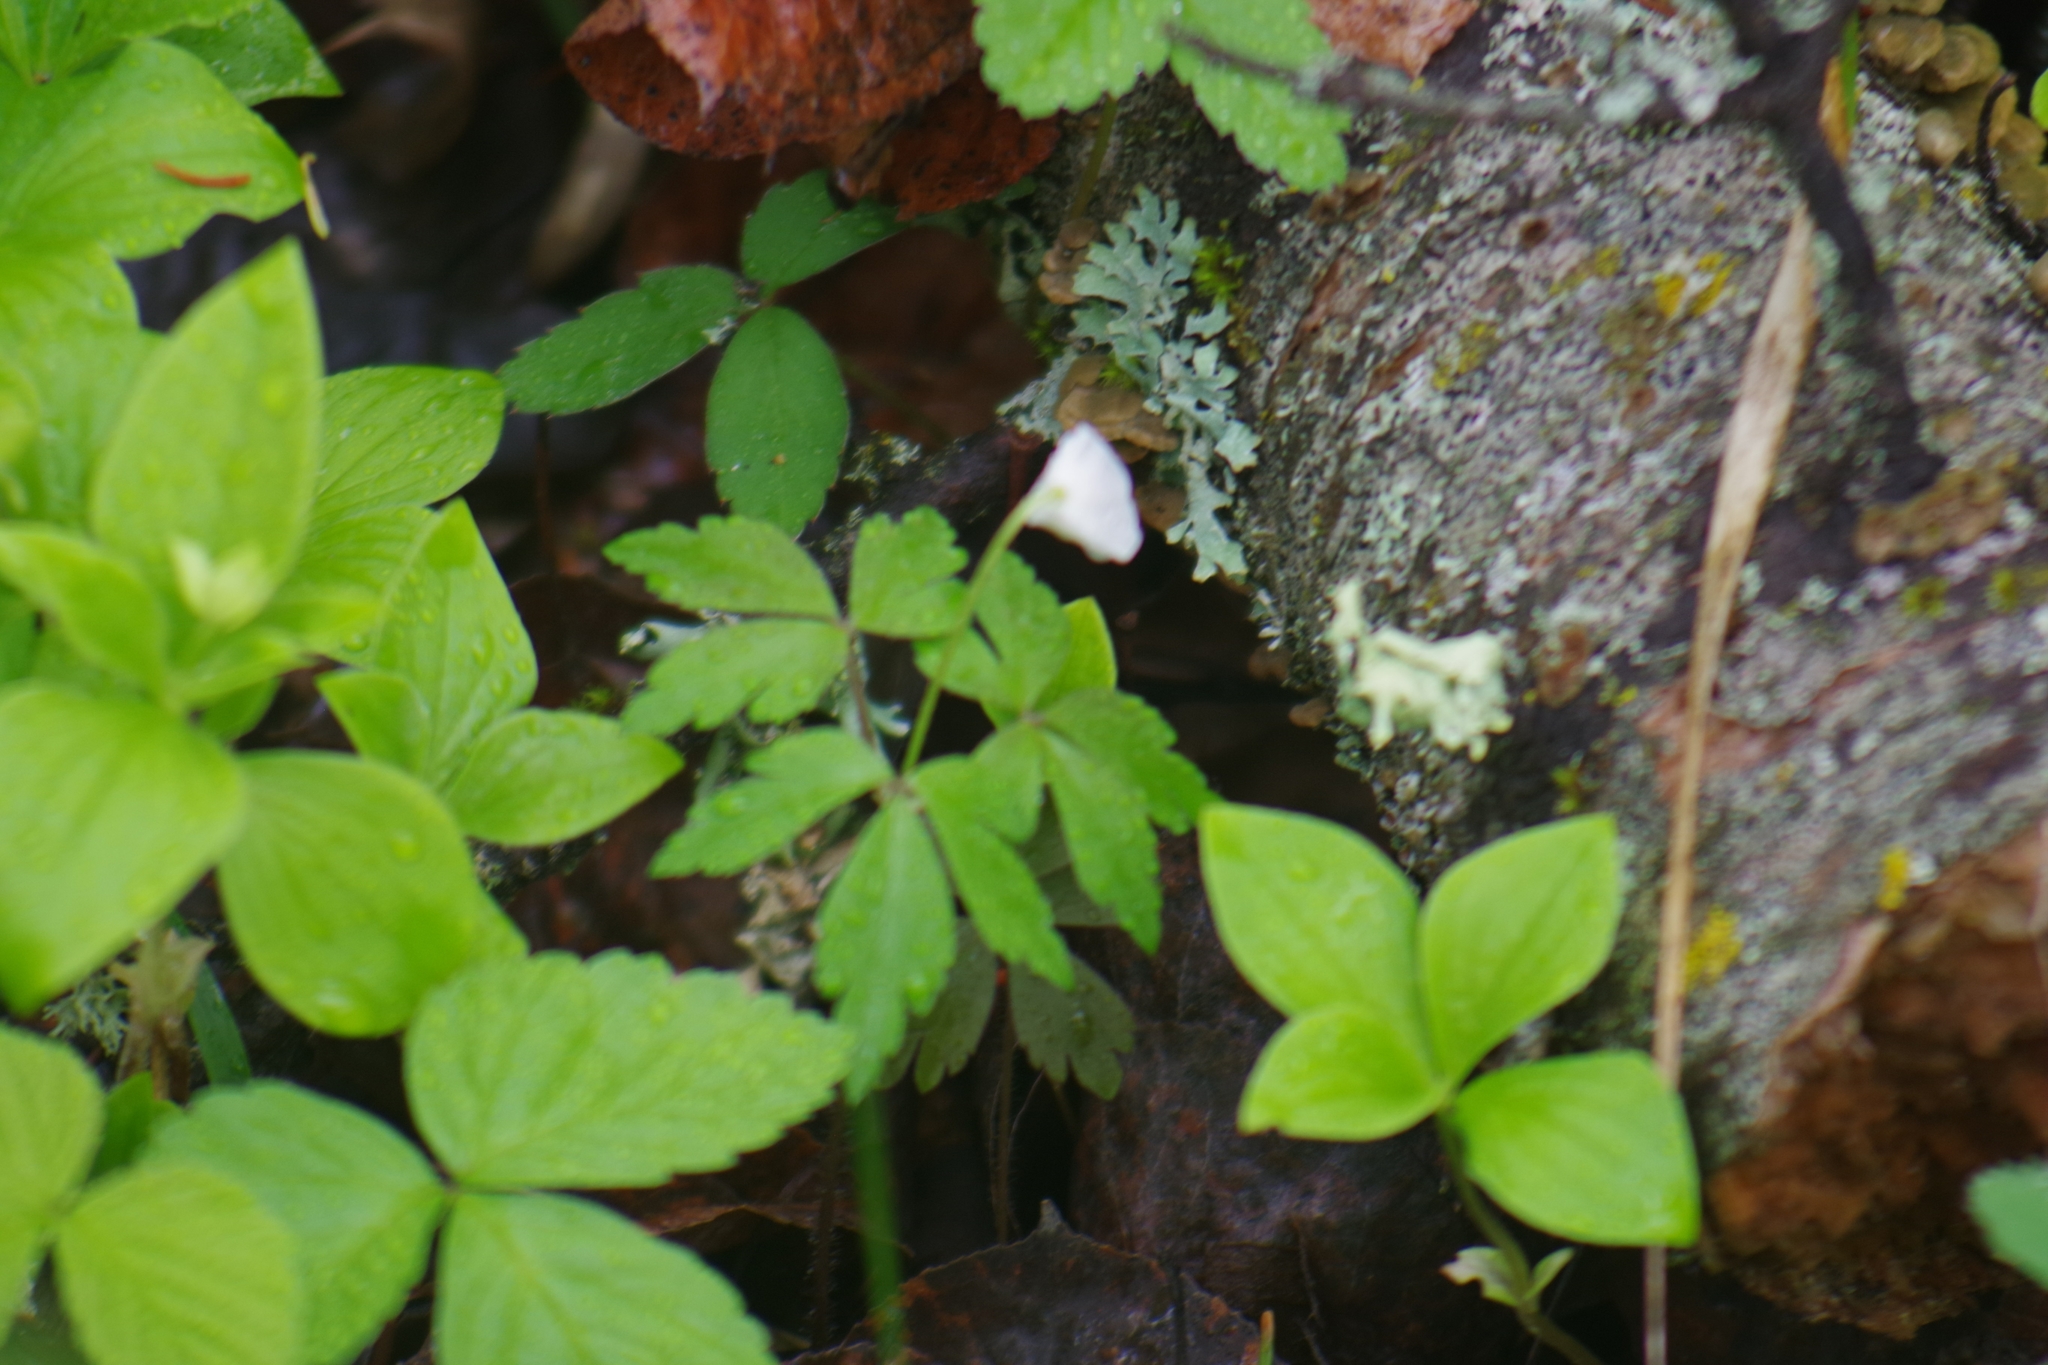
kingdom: Plantae
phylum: Tracheophyta
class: Magnoliopsida
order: Ranunculales
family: Ranunculaceae
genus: Anemone
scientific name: Anemone quinquefolia
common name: Wood anemone
